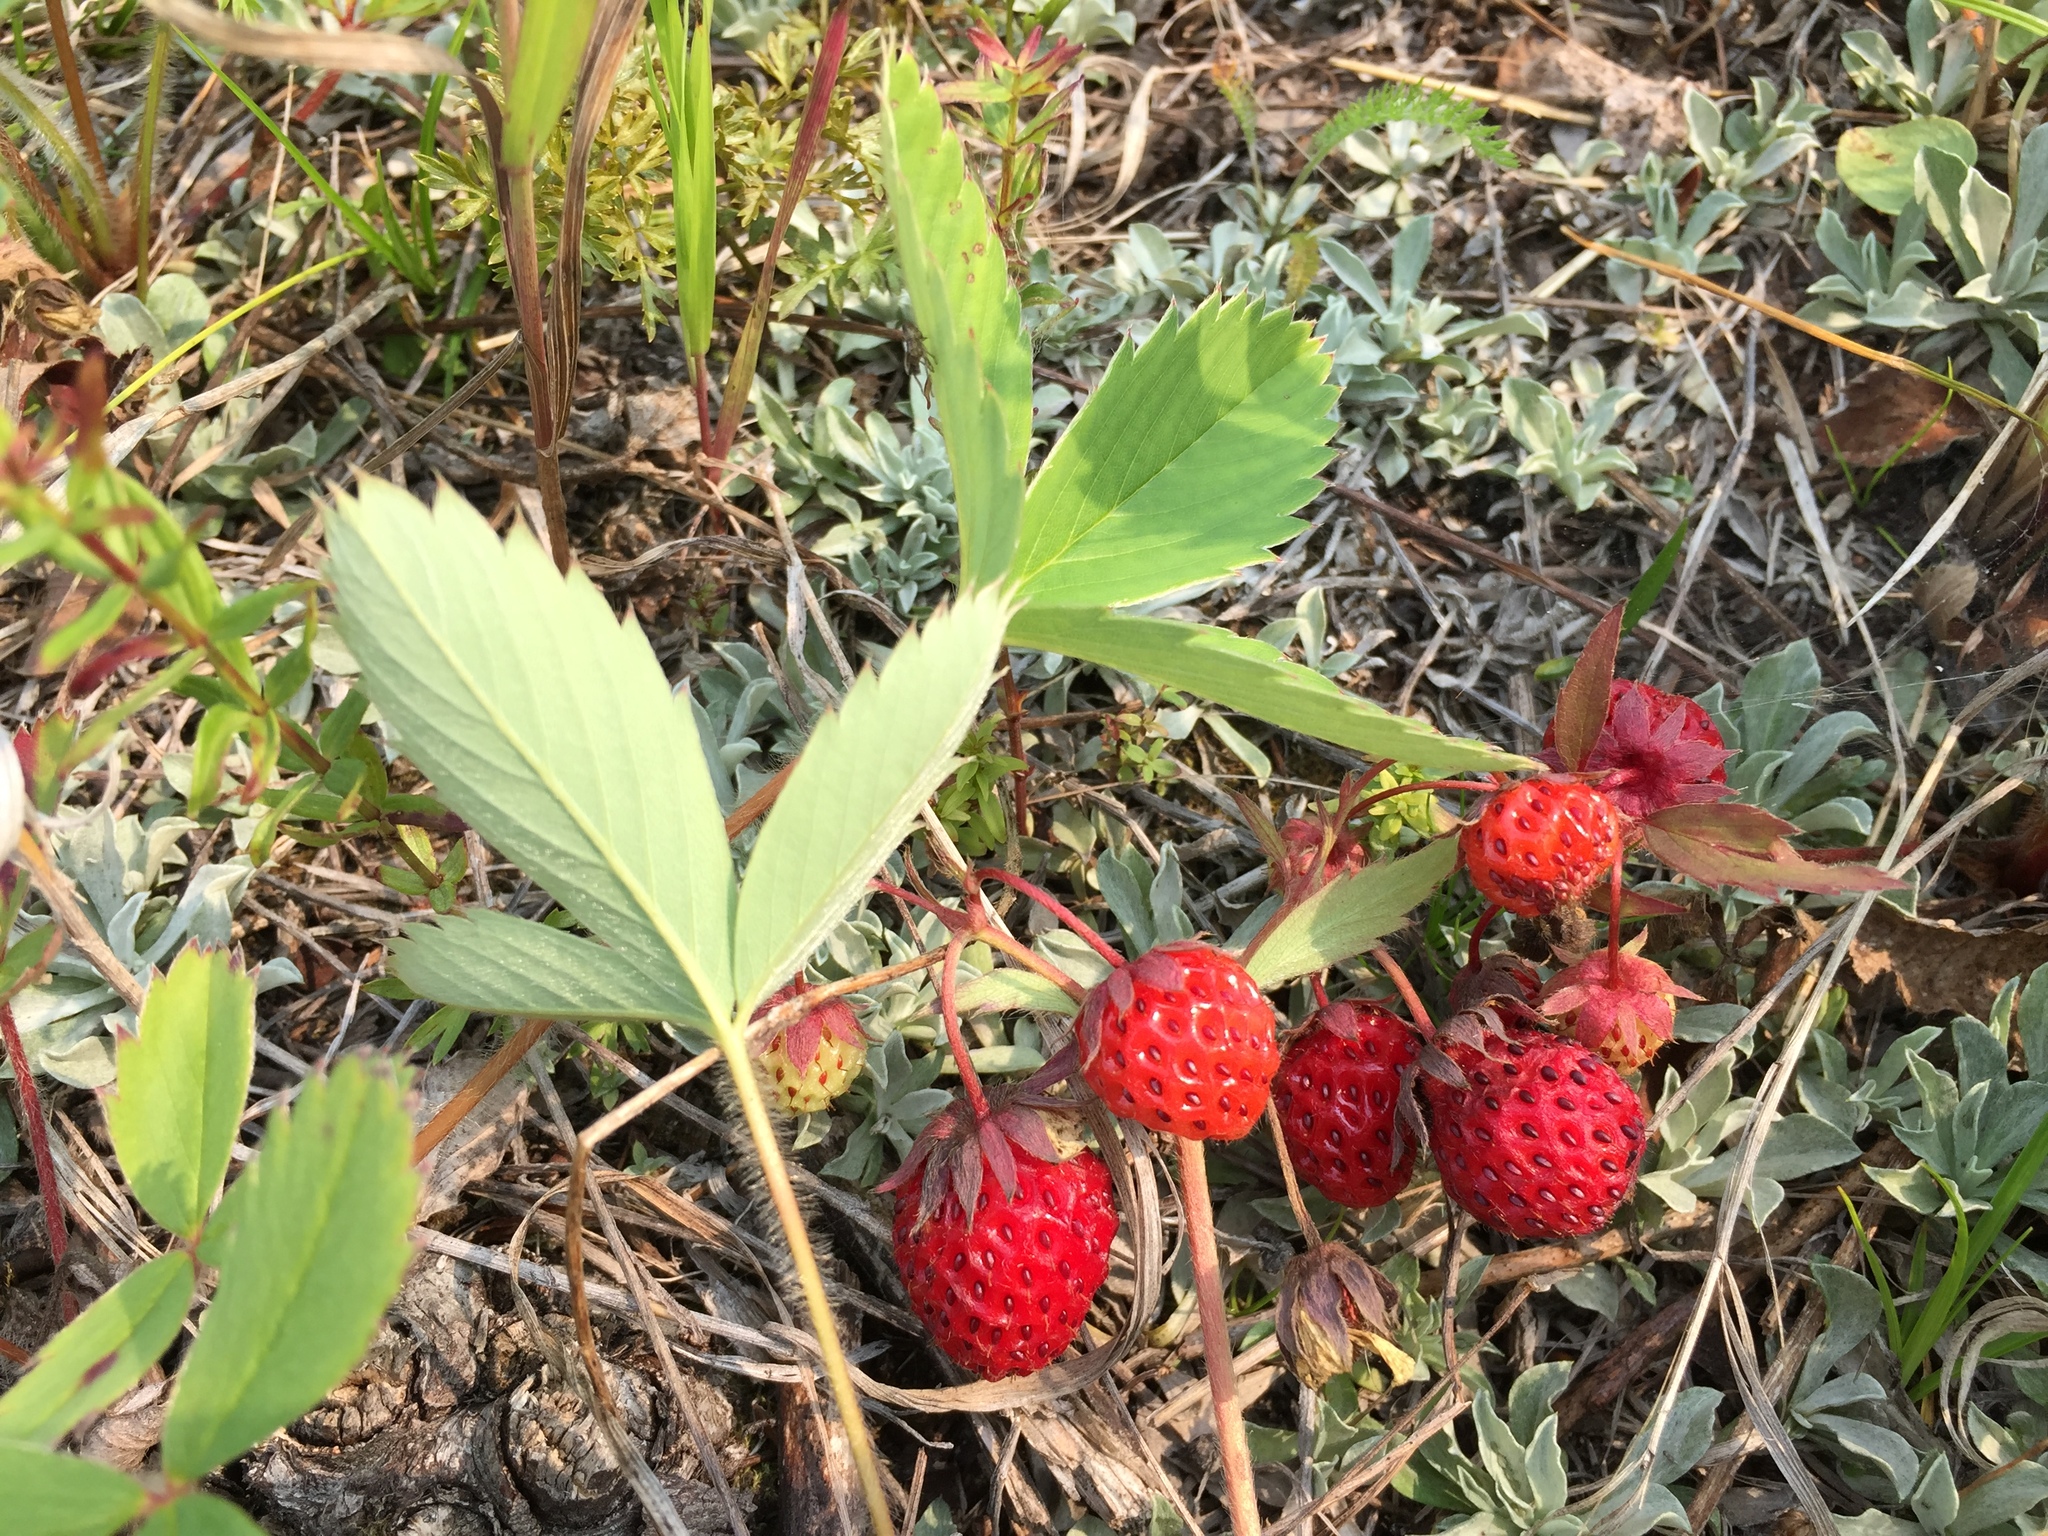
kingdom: Plantae
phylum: Tracheophyta
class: Magnoliopsida
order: Rosales
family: Rosaceae
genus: Fragaria
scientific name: Fragaria virginiana
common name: Thickleaved wild strawberry
